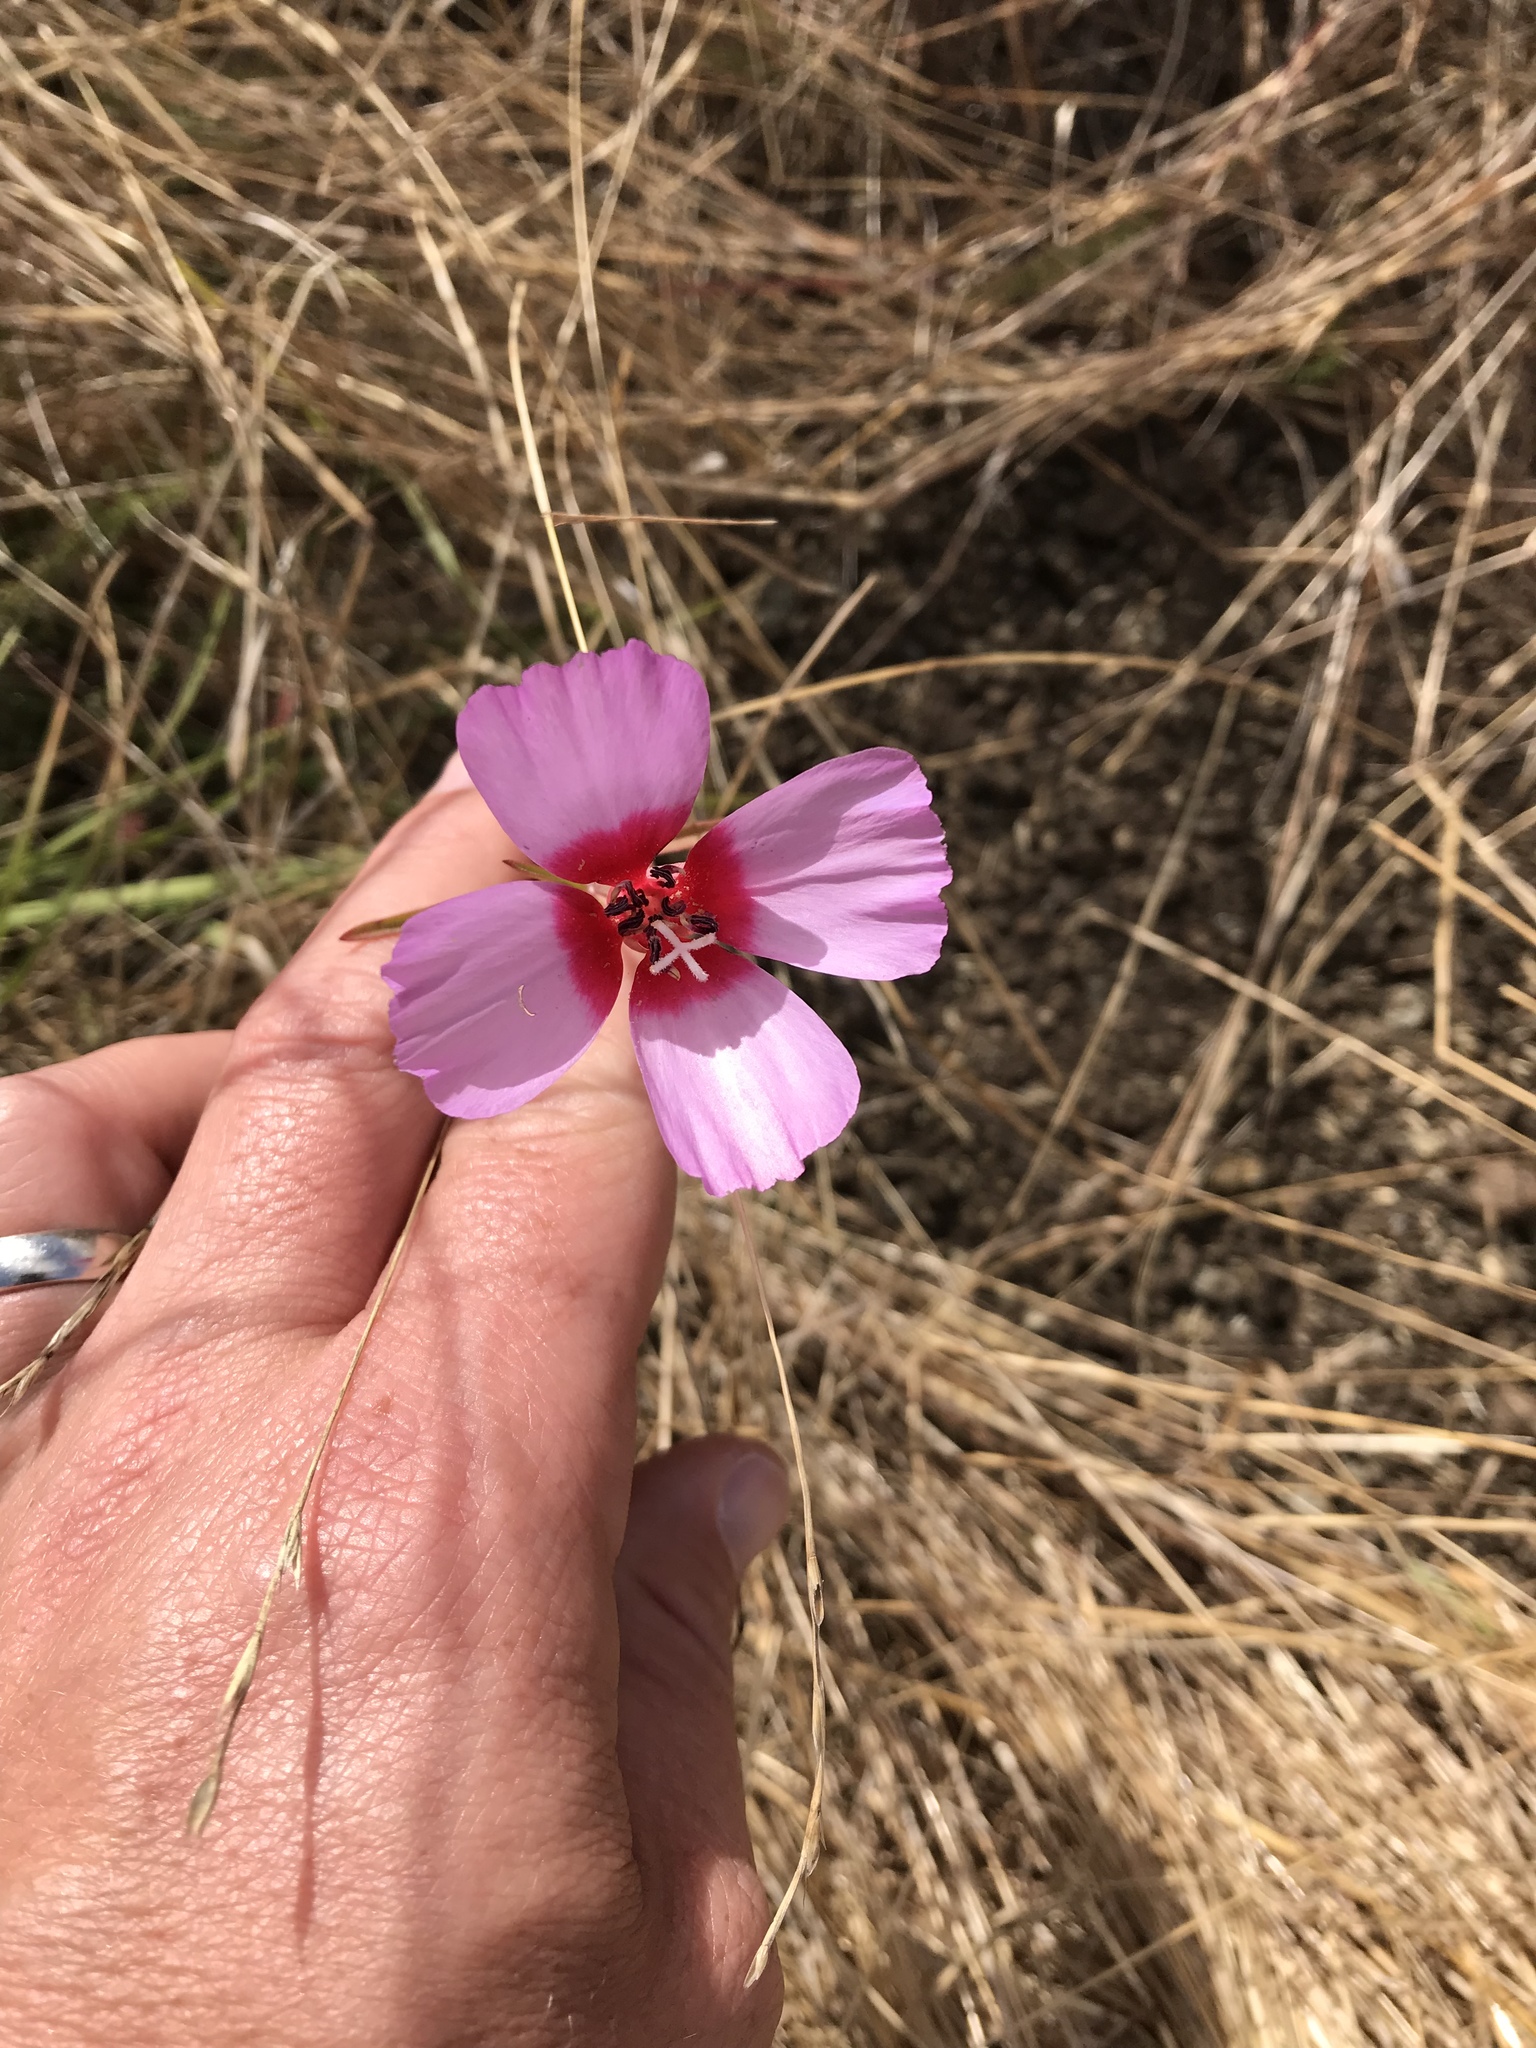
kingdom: Plantae
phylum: Tracheophyta
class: Magnoliopsida
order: Myrtales
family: Onagraceae
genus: Clarkia
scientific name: Clarkia rubicunda
